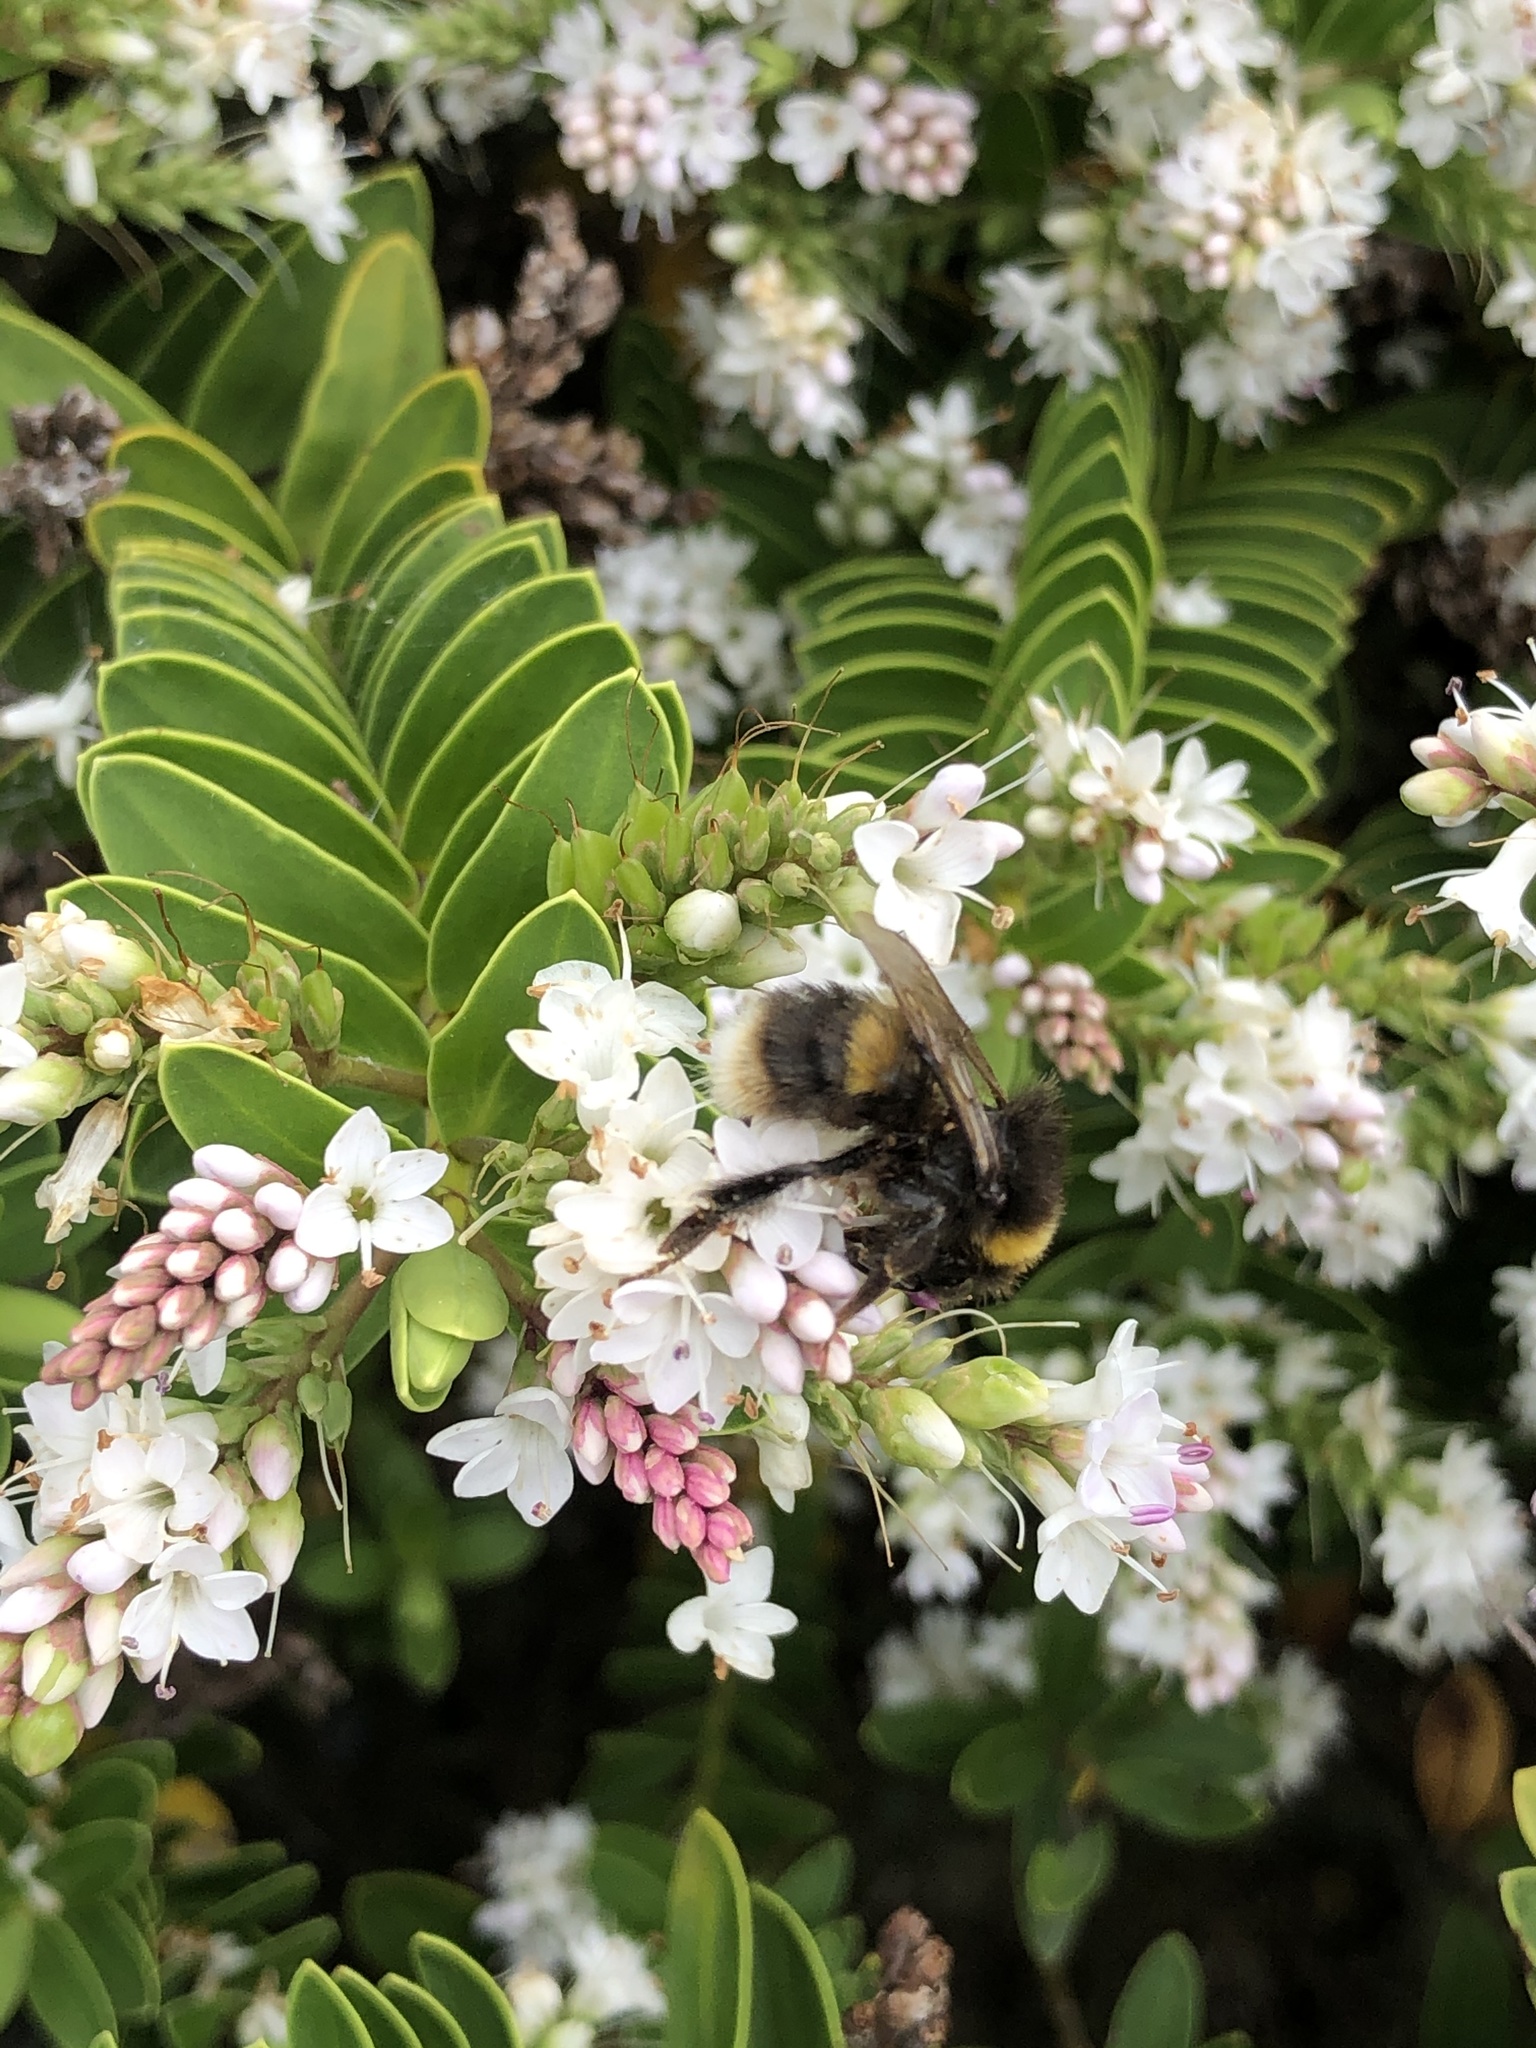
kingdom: Animalia
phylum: Arthropoda
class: Insecta
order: Hymenoptera
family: Apidae
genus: Bombus
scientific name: Bombus terrestris
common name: Buff-tailed bumblebee
